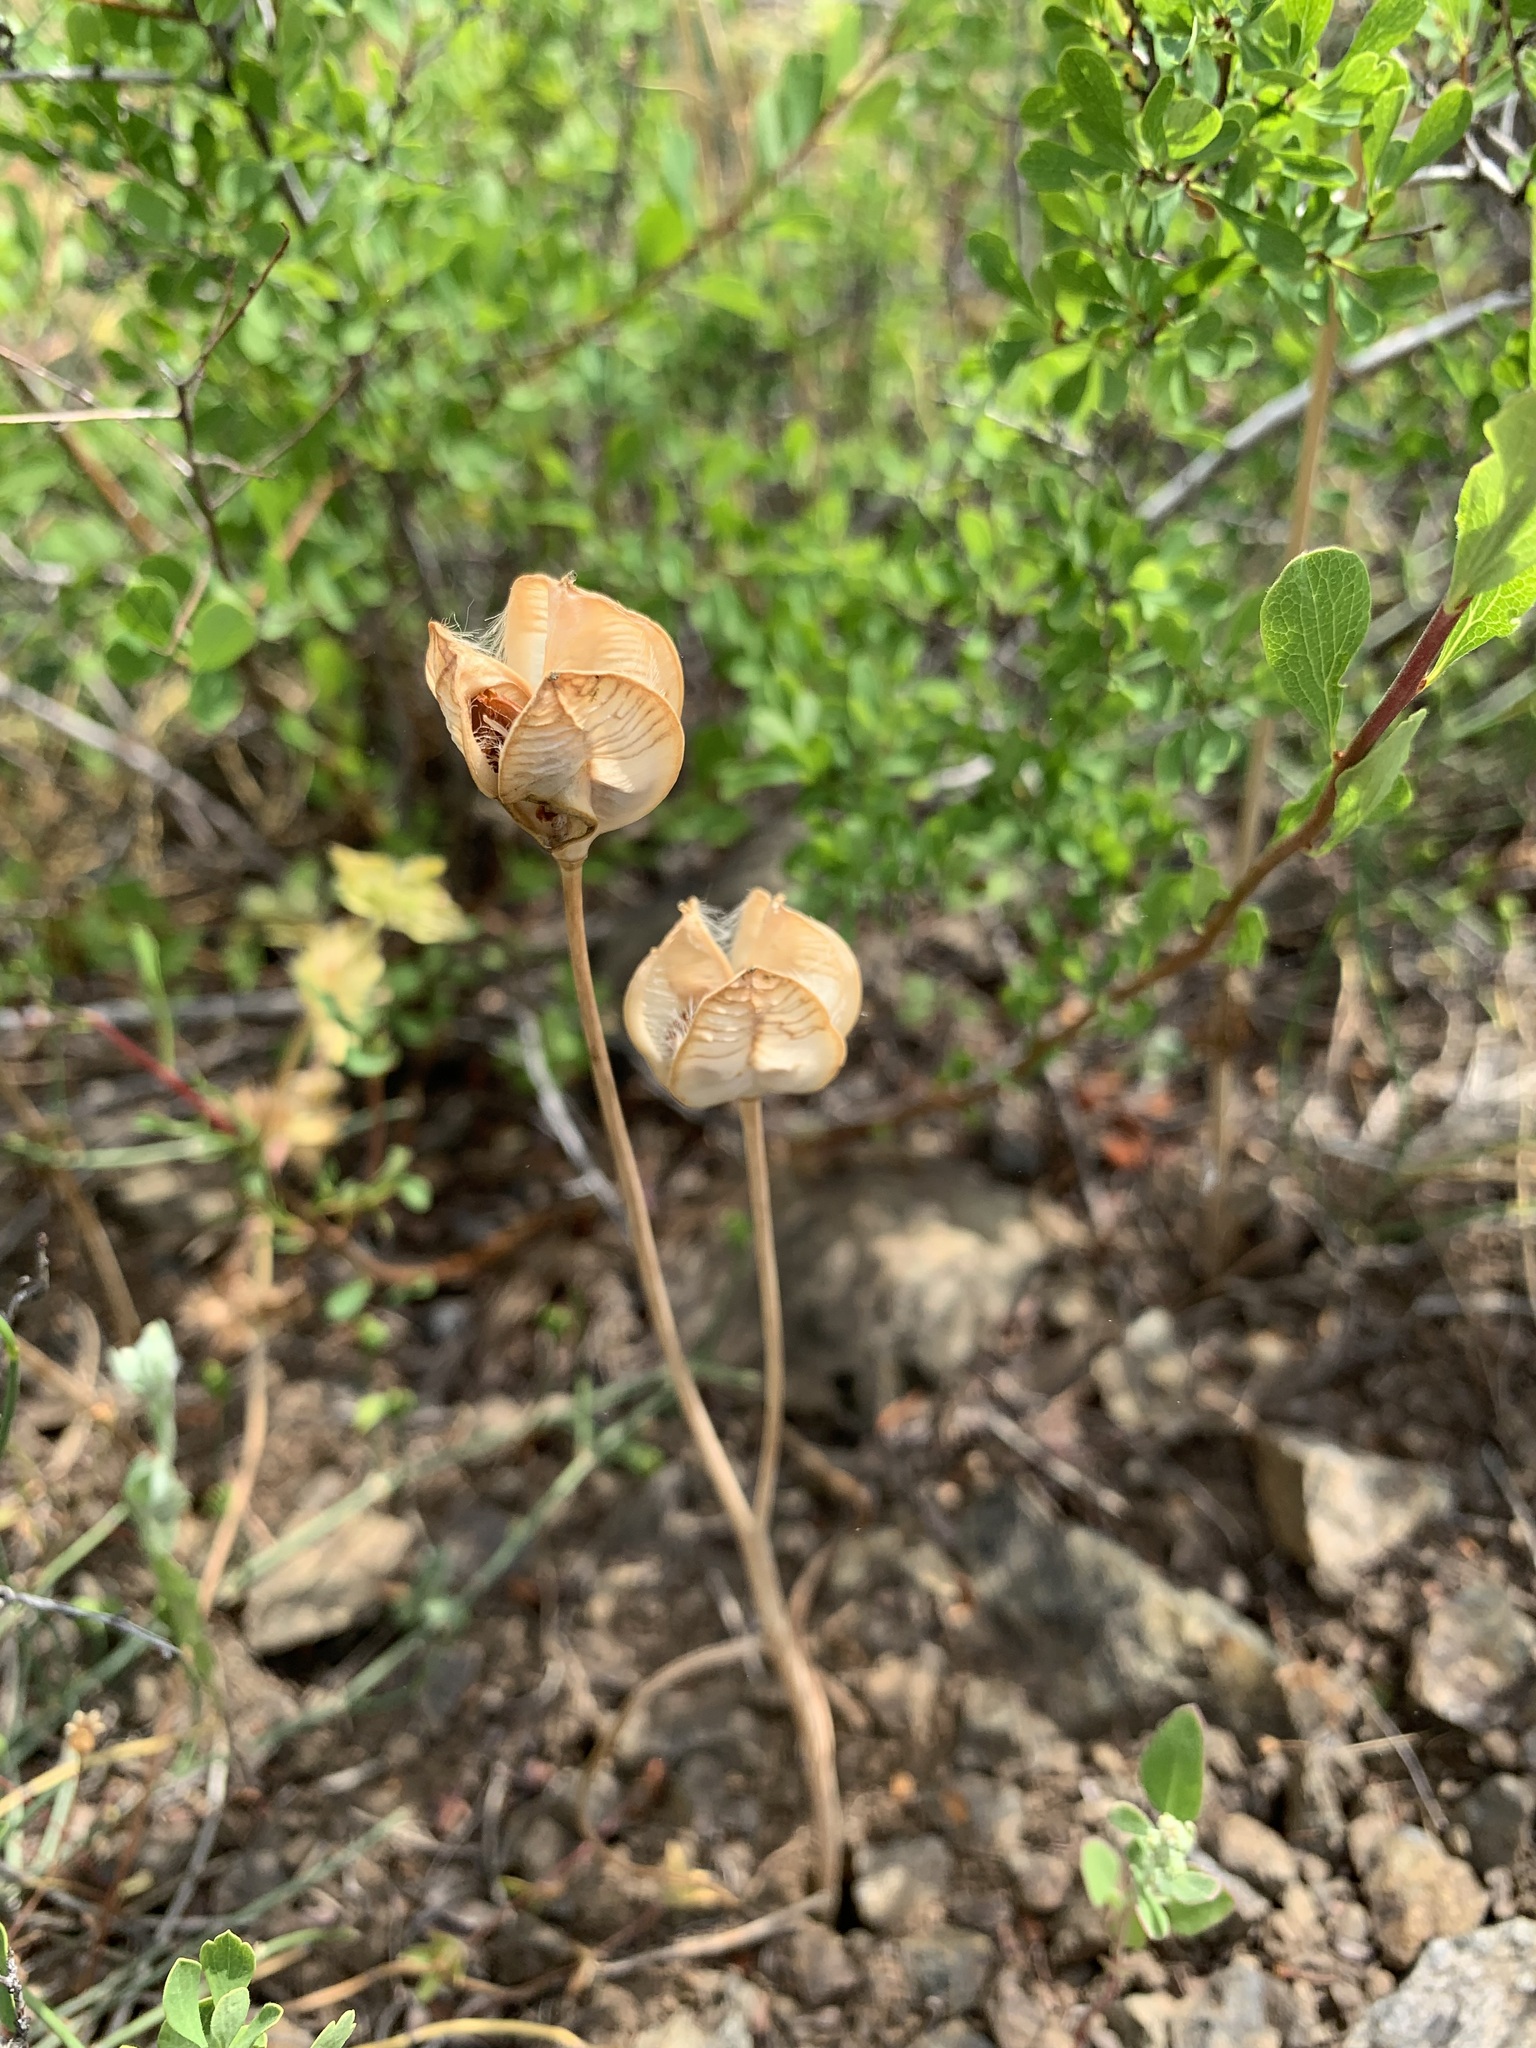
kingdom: Plantae
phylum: Tracheophyta
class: Liliopsida
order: Liliales
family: Liliaceae
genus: Tulipa
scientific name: Tulipa biflora
